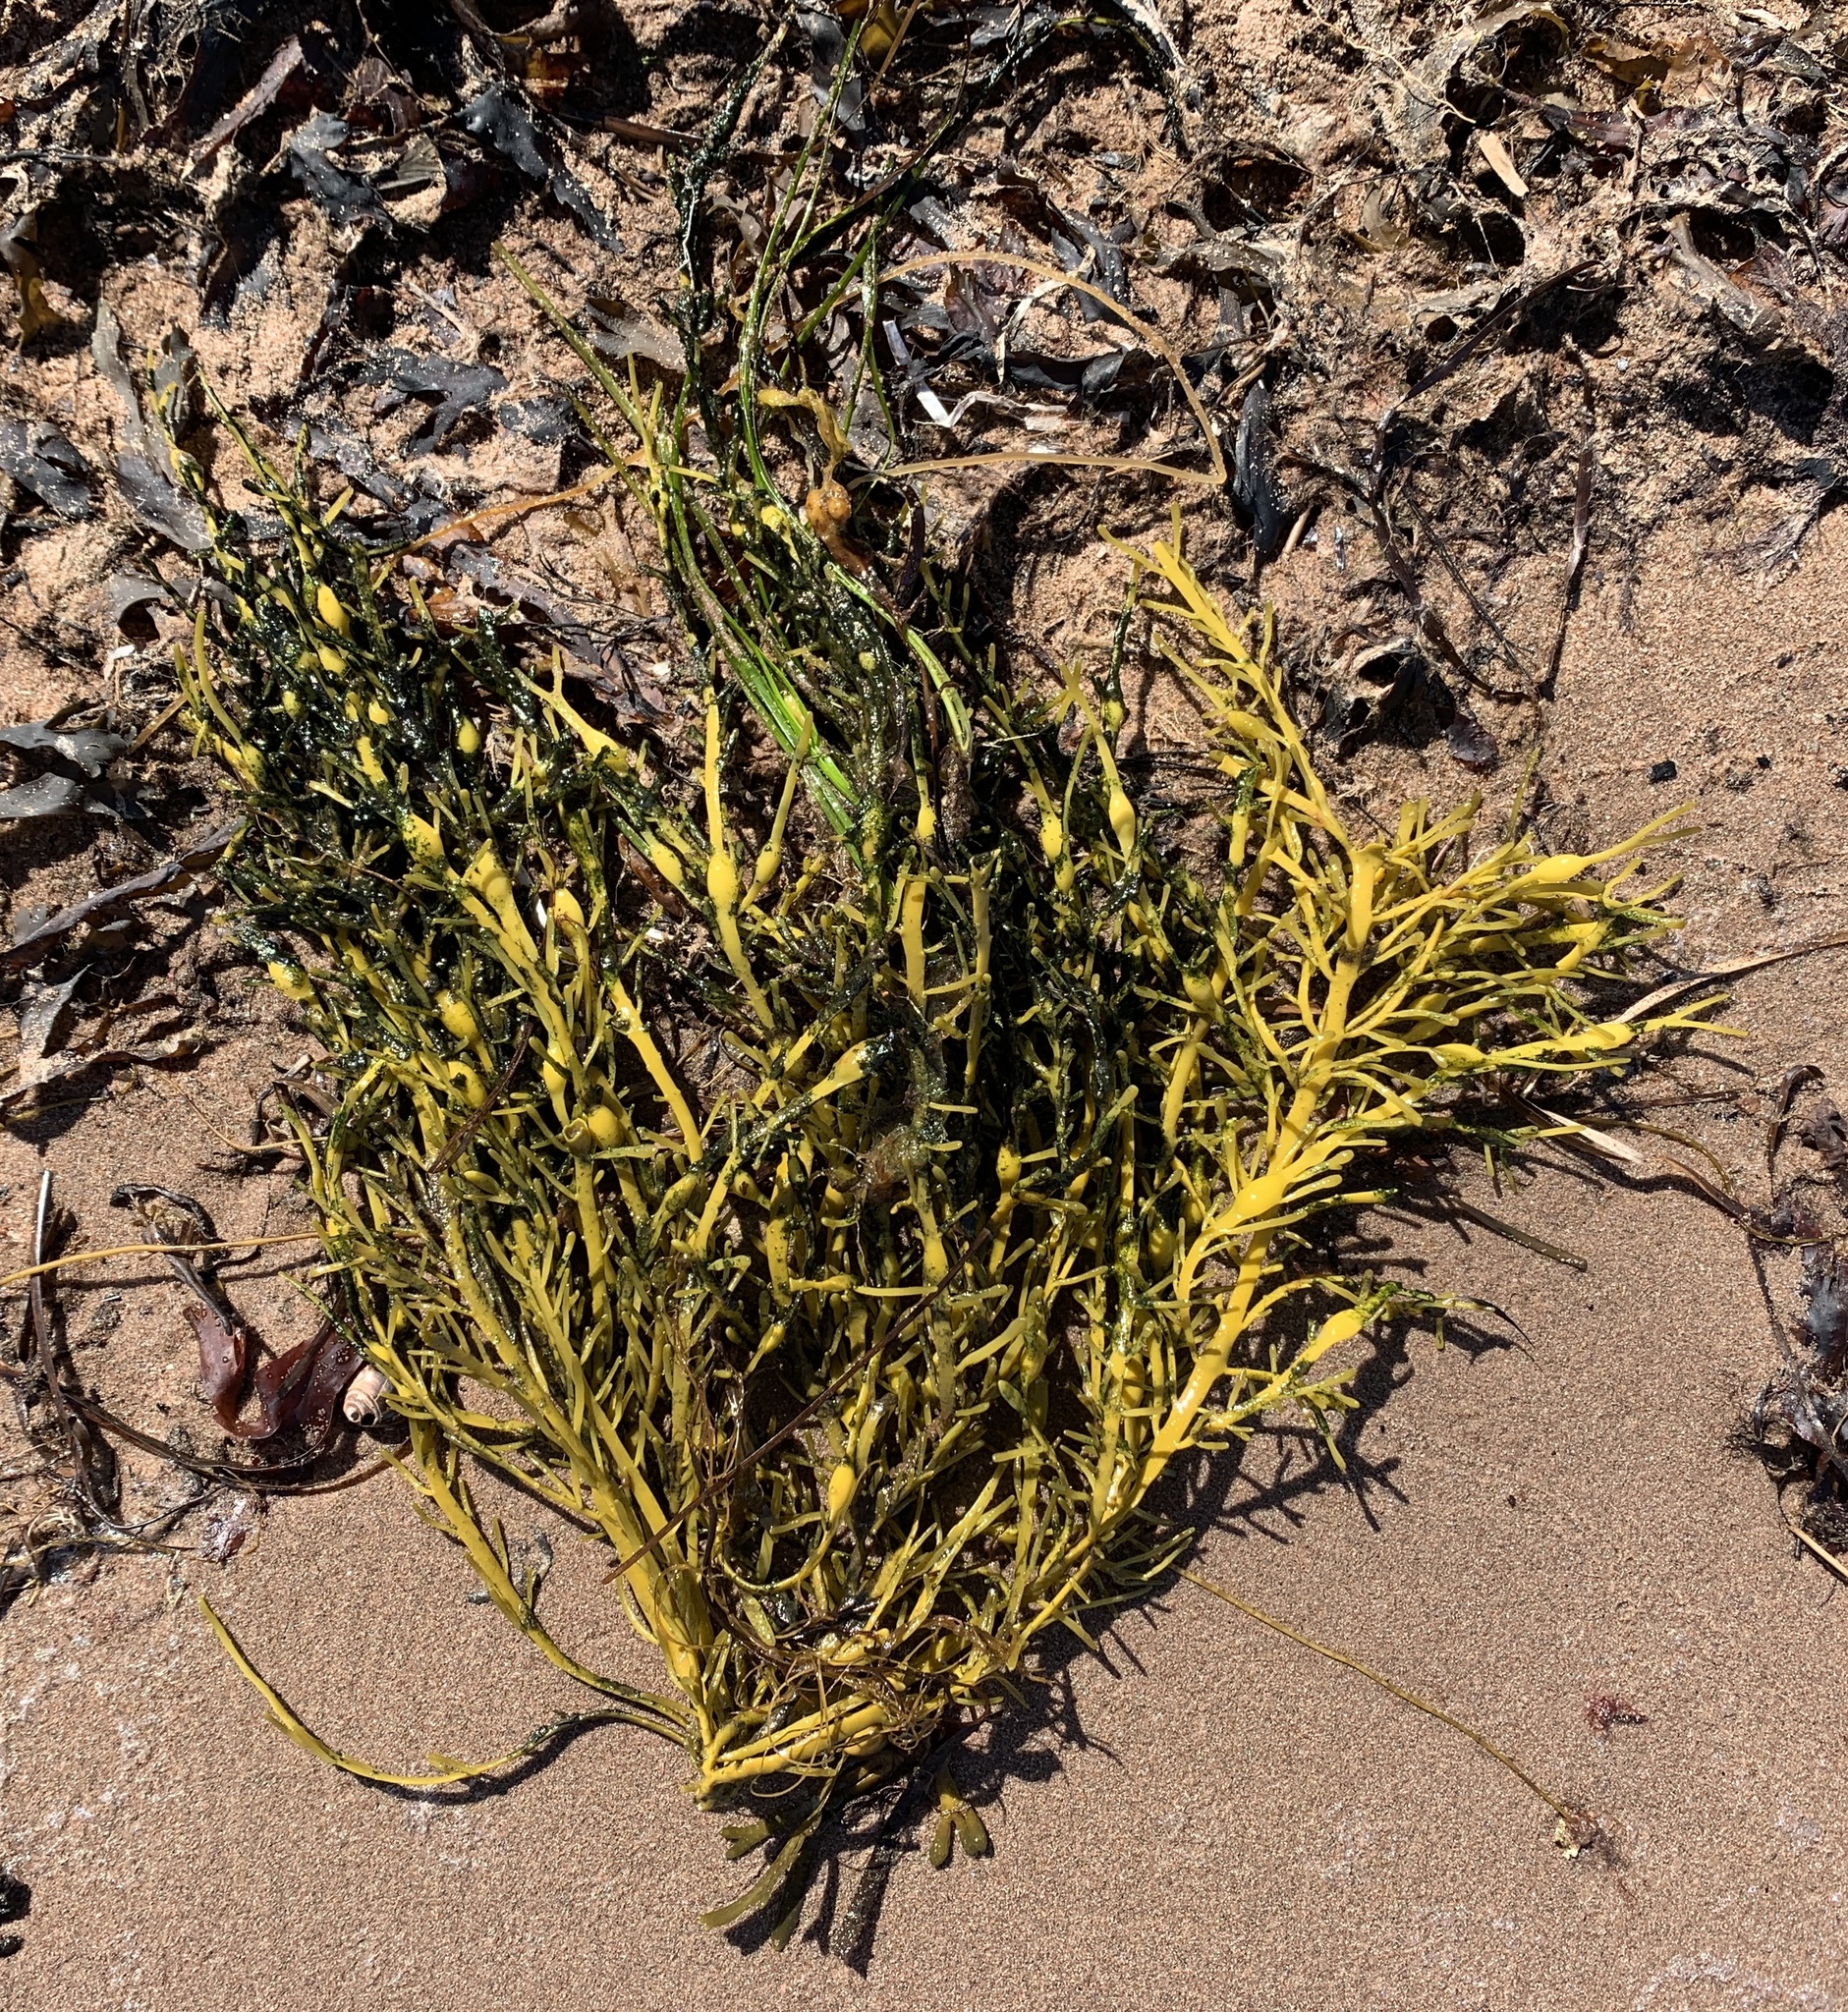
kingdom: Chromista
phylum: Ochrophyta
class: Phaeophyceae
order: Fucales
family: Fucaceae
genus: Ascophyllum
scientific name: Ascophyllum nodosum
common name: Knotted wrack
